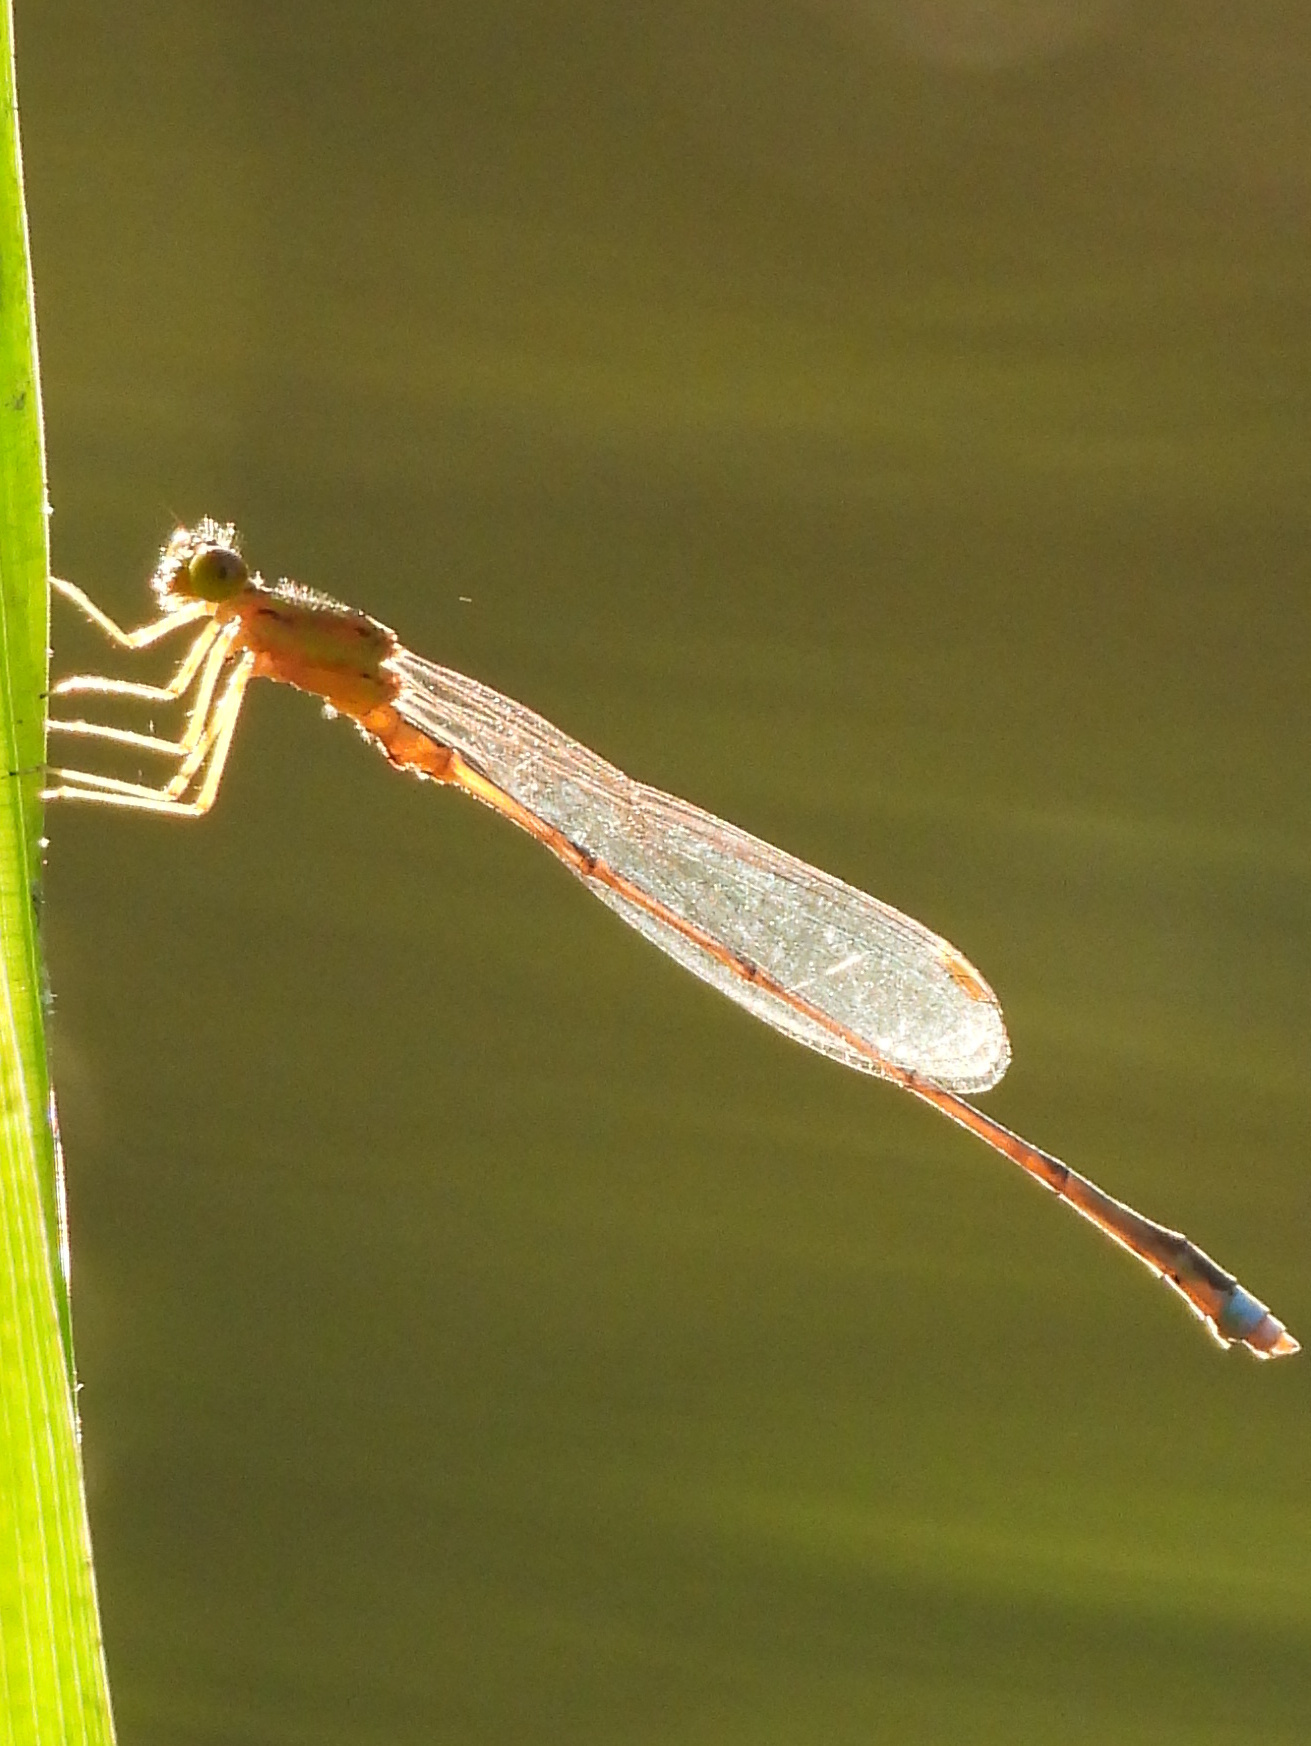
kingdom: Animalia
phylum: Arthropoda
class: Insecta
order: Odonata
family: Coenagrionidae
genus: Enallagma
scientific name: Enallagma vesperum
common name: Vesper bluet
